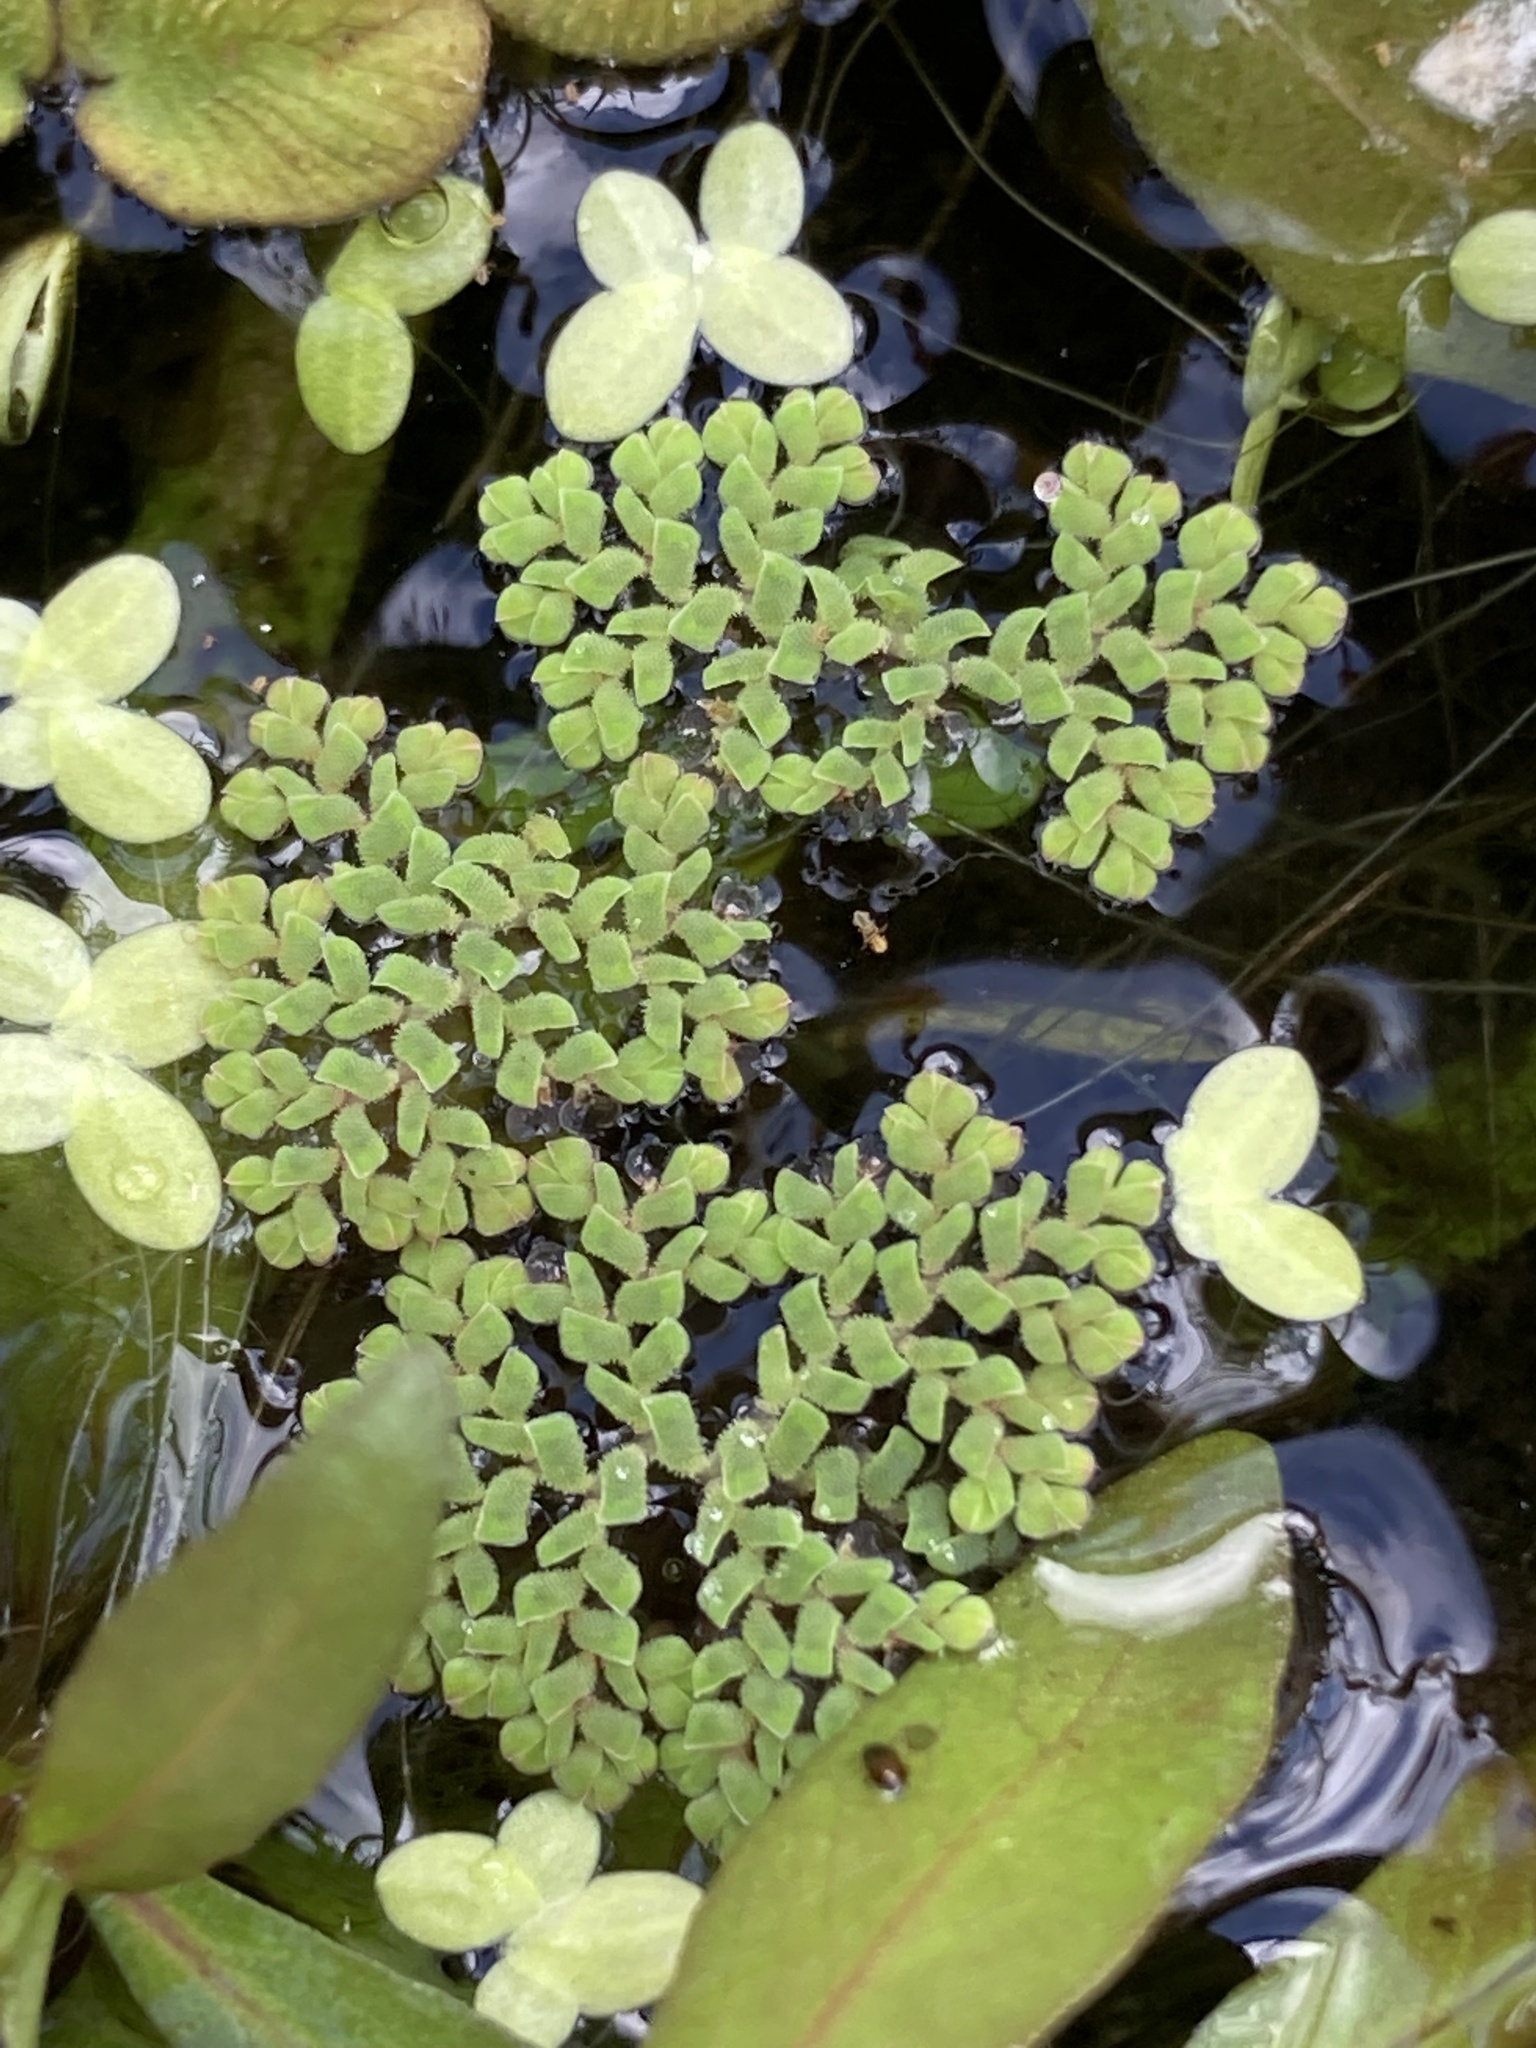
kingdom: Plantae
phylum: Tracheophyta
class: Polypodiopsida
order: Salviniales
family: Salviniaceae
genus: Azolla
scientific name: Azolla pinnata
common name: Ferny azolla
